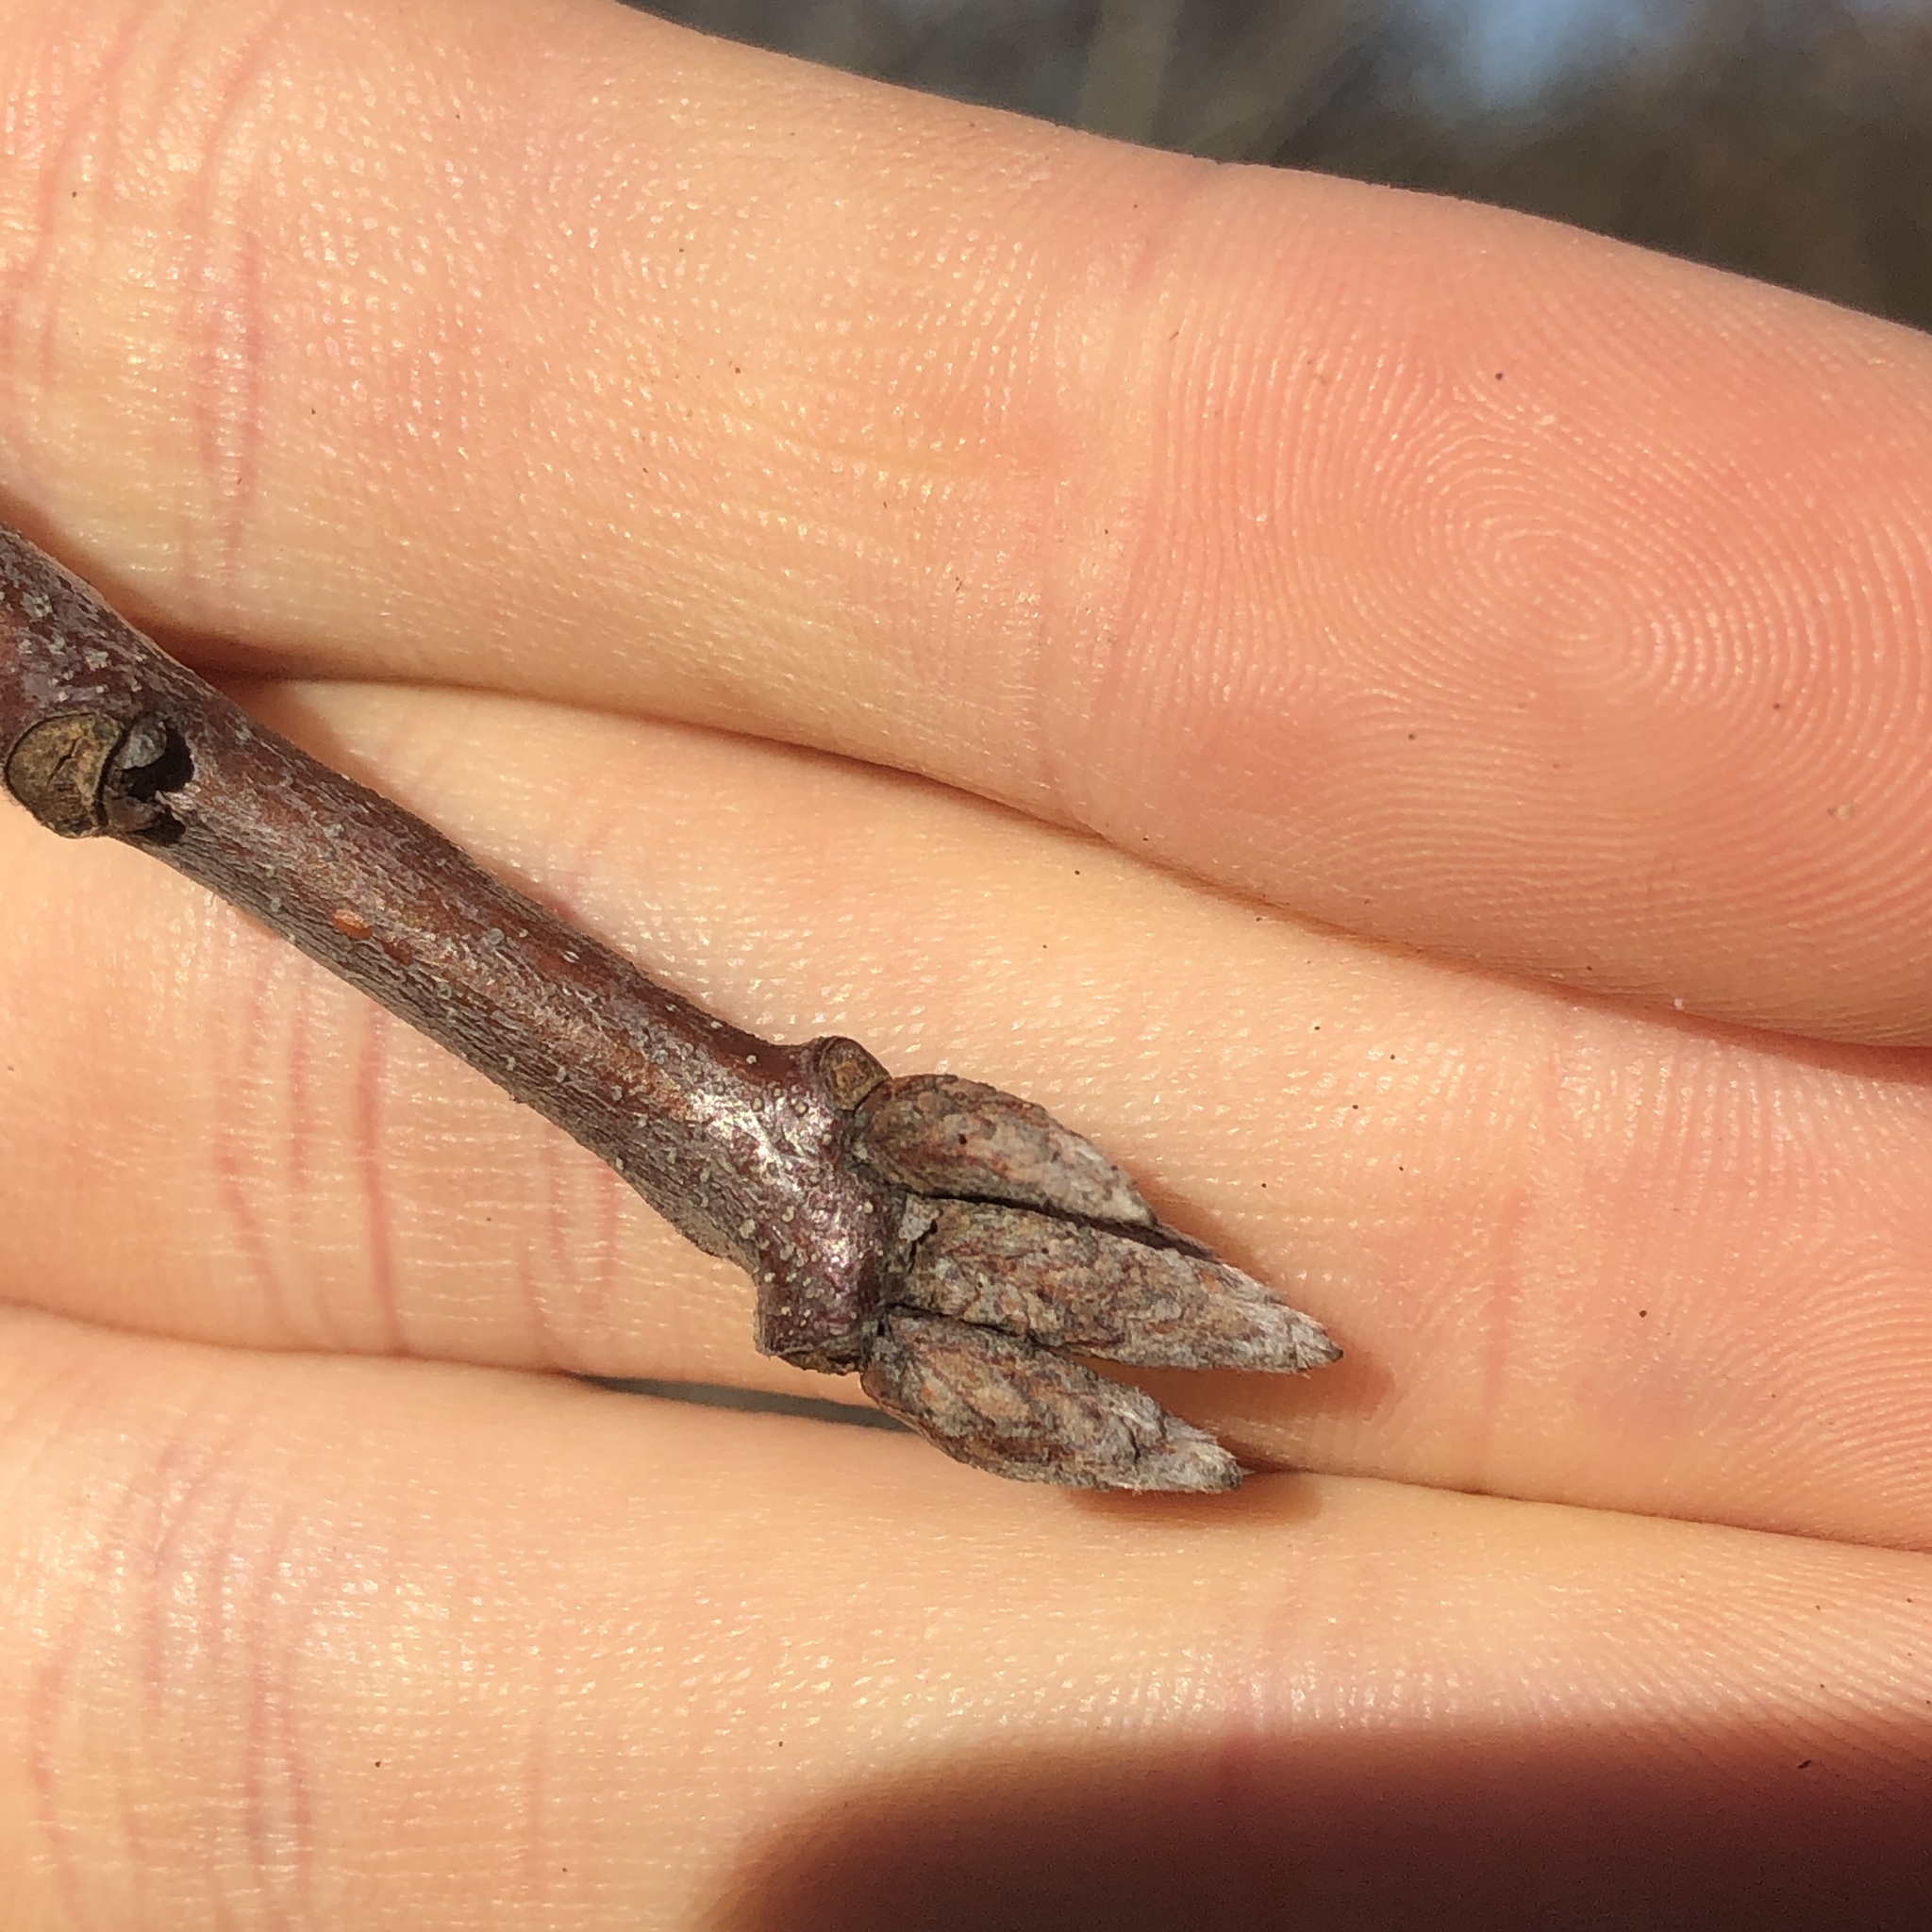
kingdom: Plantae
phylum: Tracheophyta
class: Magnoliopsida
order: Fagales
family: Fagaceae
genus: Quercus
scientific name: Quercus velutina
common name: Black oak
